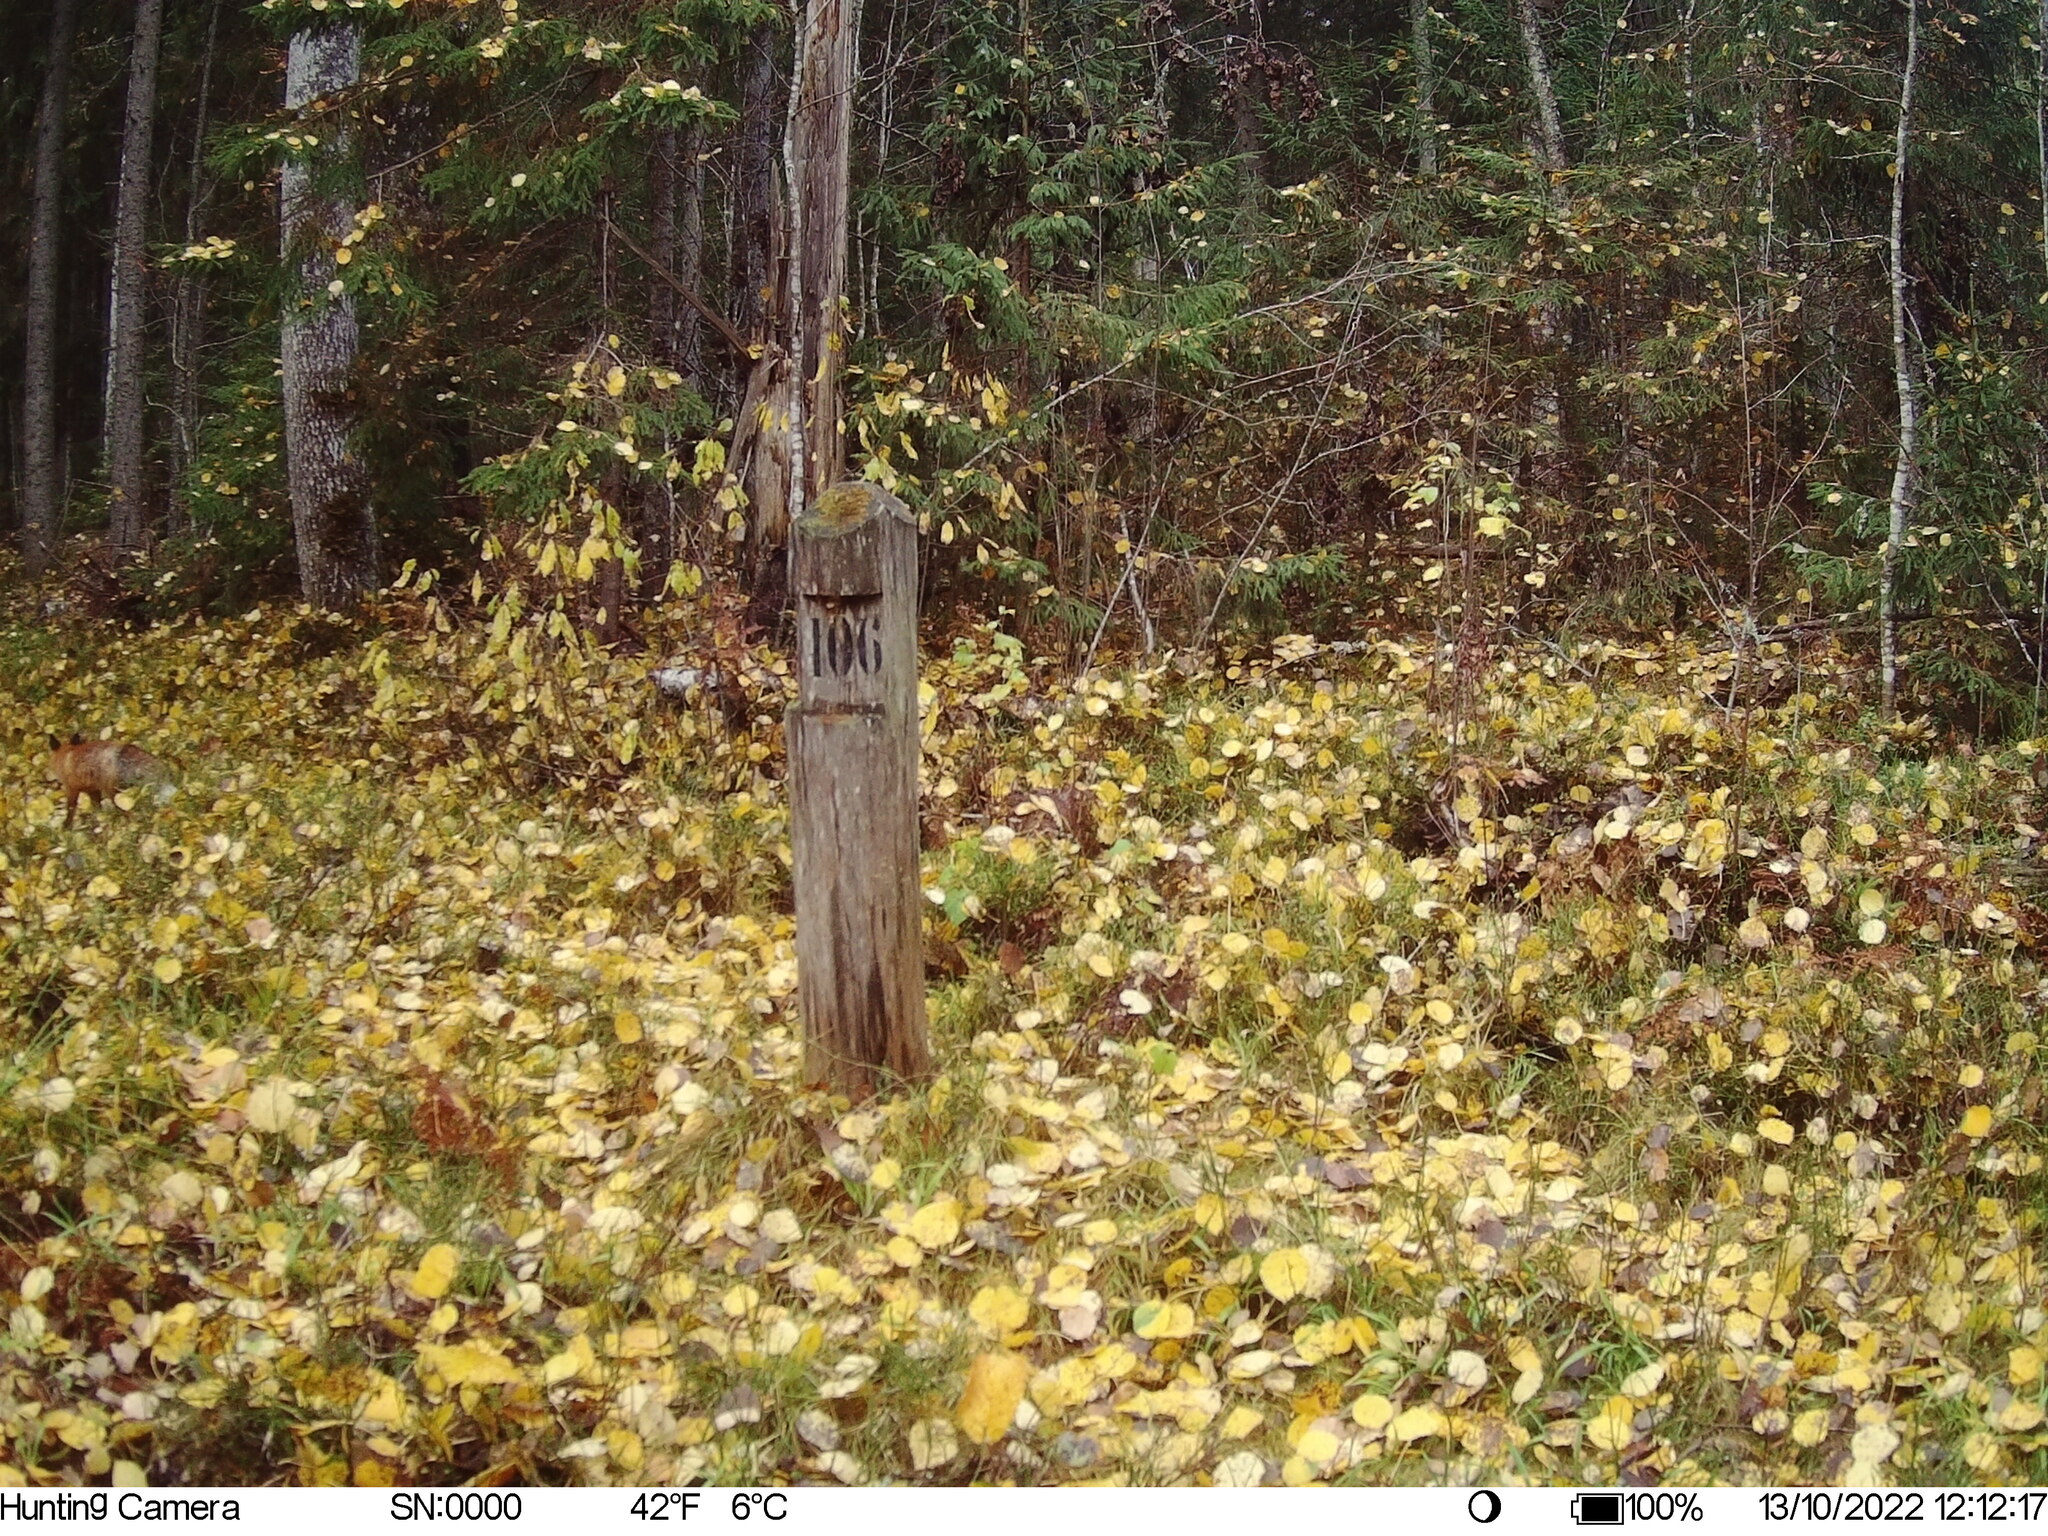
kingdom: Animalia
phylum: Chordata
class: Mammalia
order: Carnivora
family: Canidae
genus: Vulpes
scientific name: Vulpes vulpes
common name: Red fox
